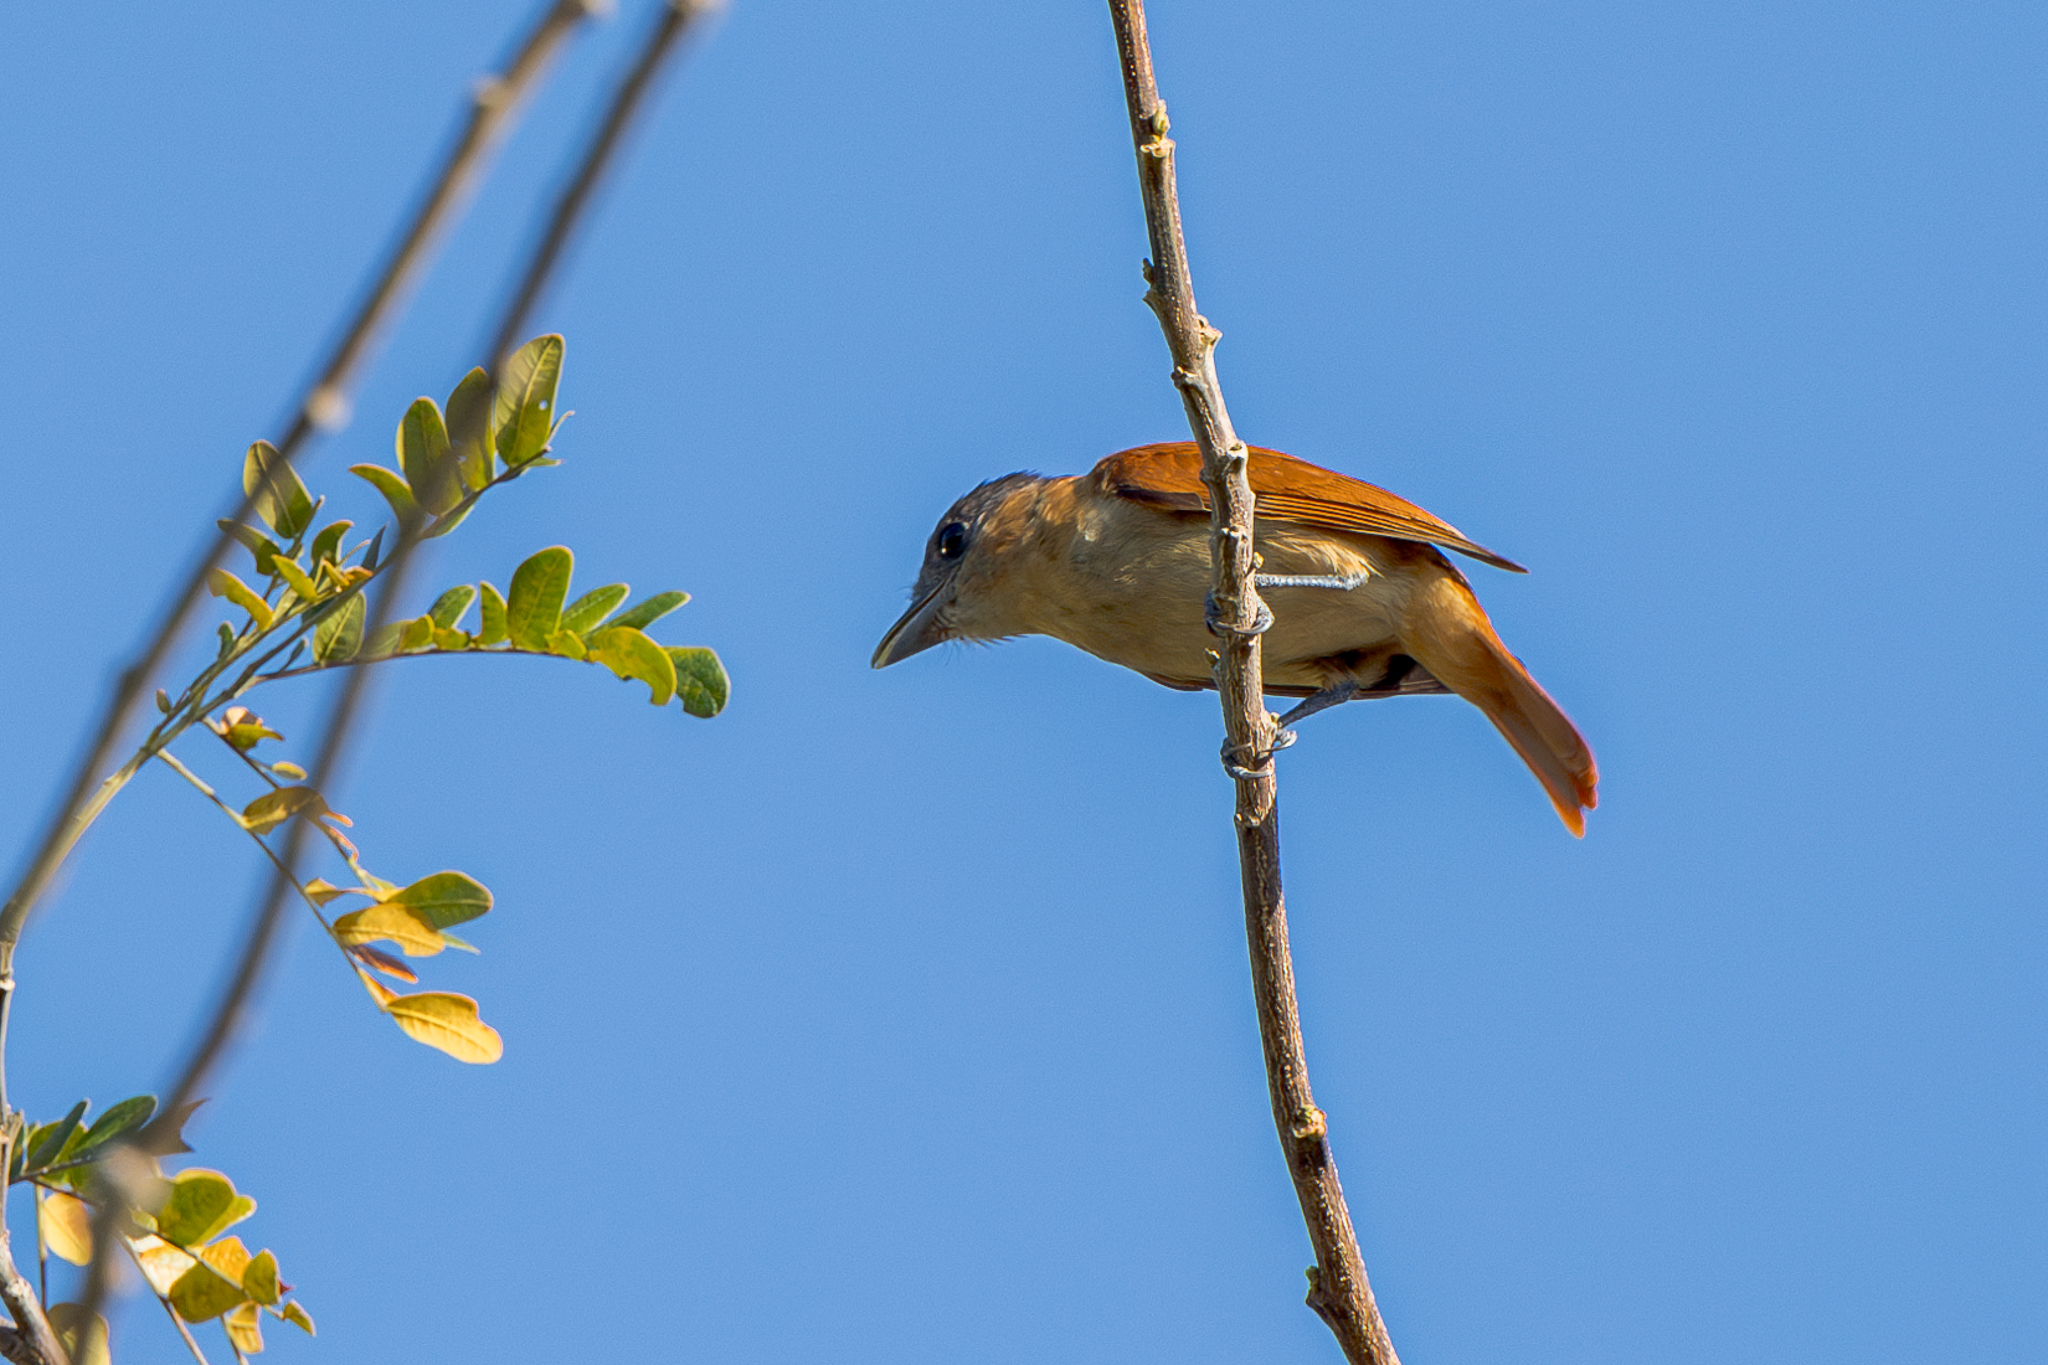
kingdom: Animalia
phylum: Chordata
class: Aves
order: Passeriformes
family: Cotingidae
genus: Pachyramphus
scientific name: Pachyramphus aglaiae
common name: Rose-throated becard
